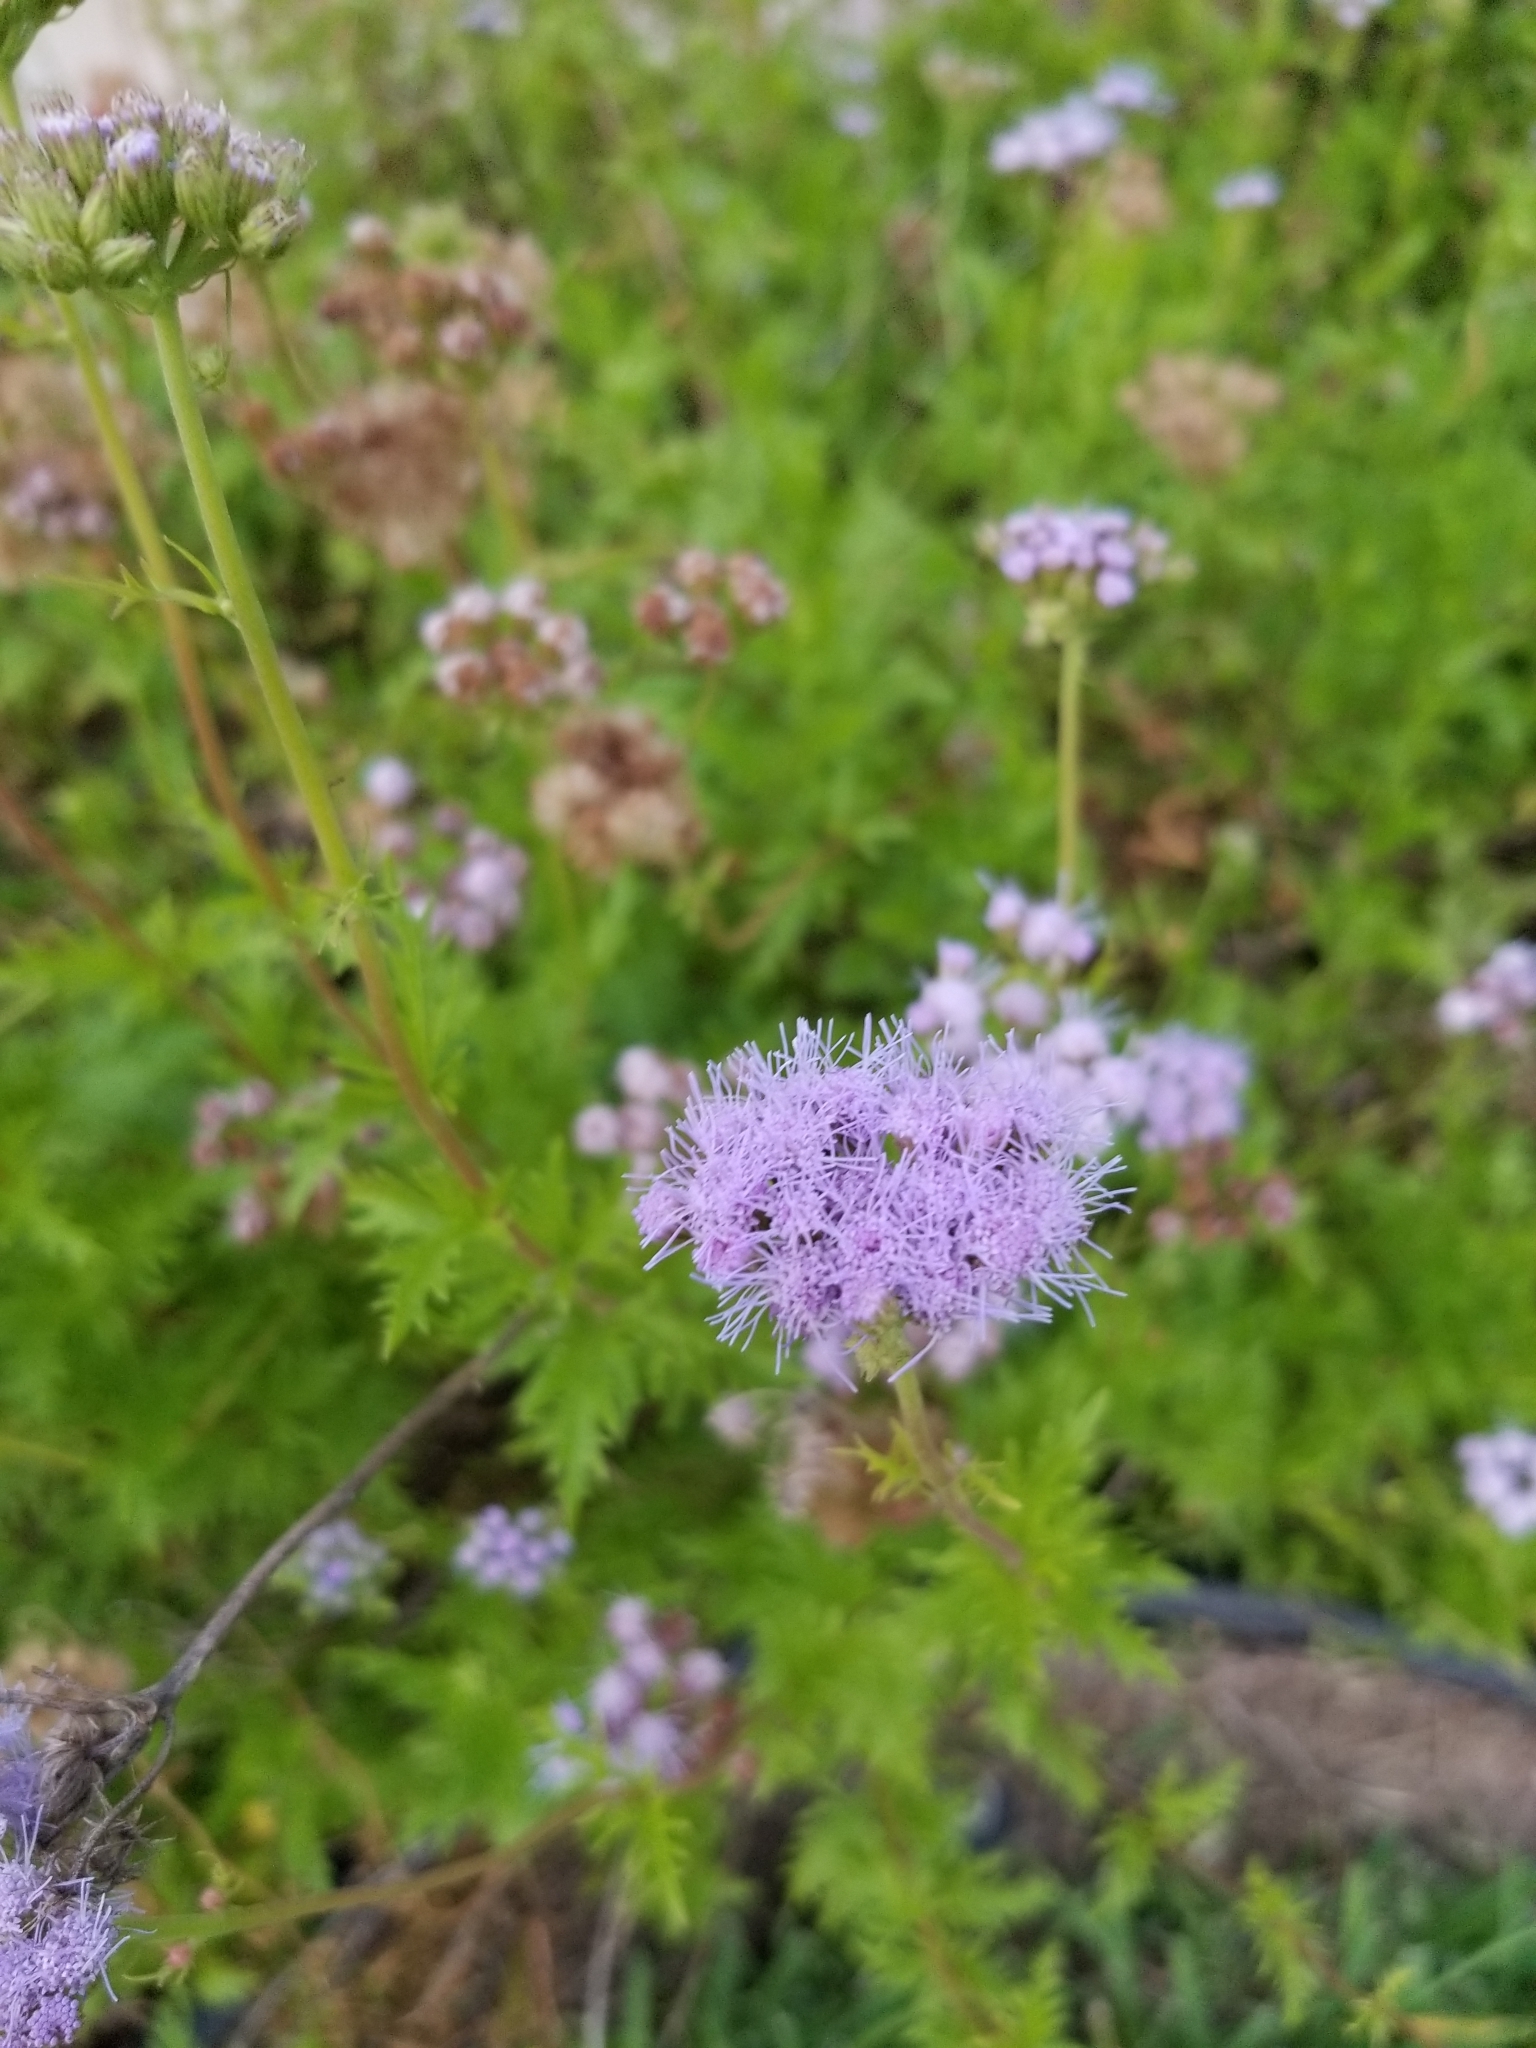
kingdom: Plantae
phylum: Tracheophyta
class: Magnoliopsida
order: Asterales
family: Asteraceae
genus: Conoclinium
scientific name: Conoclinium dissectum
